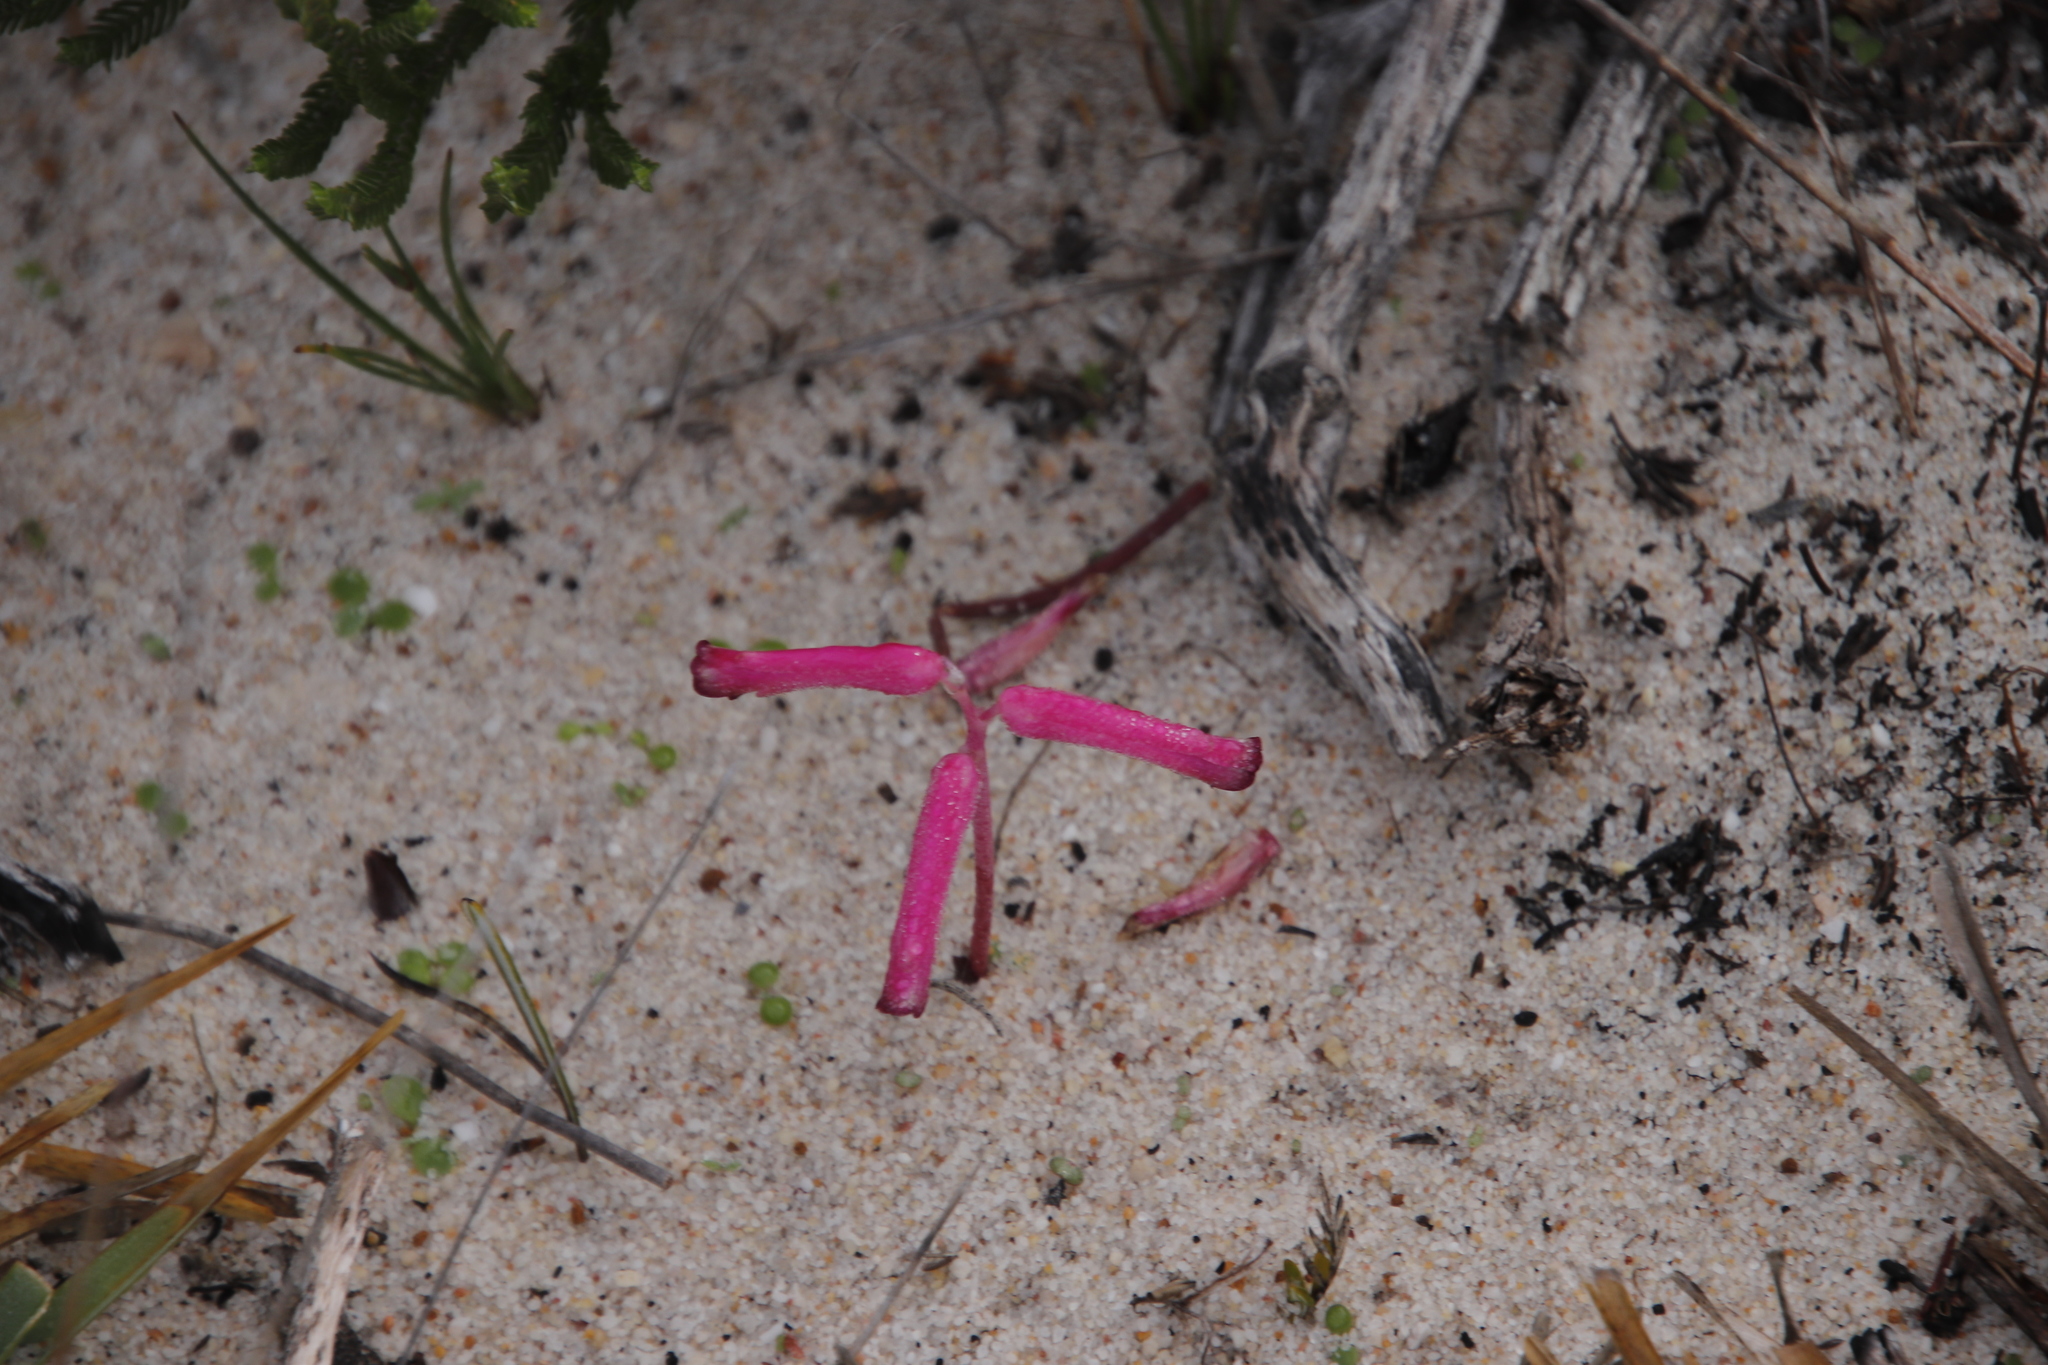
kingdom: Plantae
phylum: Tracheophyta
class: Liliopsida
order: Asparagales
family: Asparagaceae
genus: Lachenalia
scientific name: Lachenalia punctata
